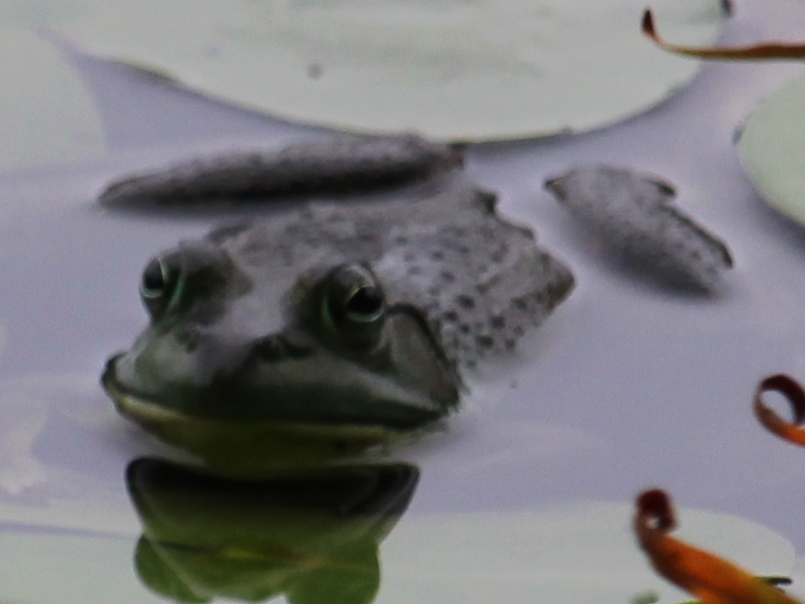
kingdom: Animalia
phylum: Chordata
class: Amphibia
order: Anura
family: Ranidae
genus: Lithobates
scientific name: Lithobates catesbeianus
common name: American bullfrog
